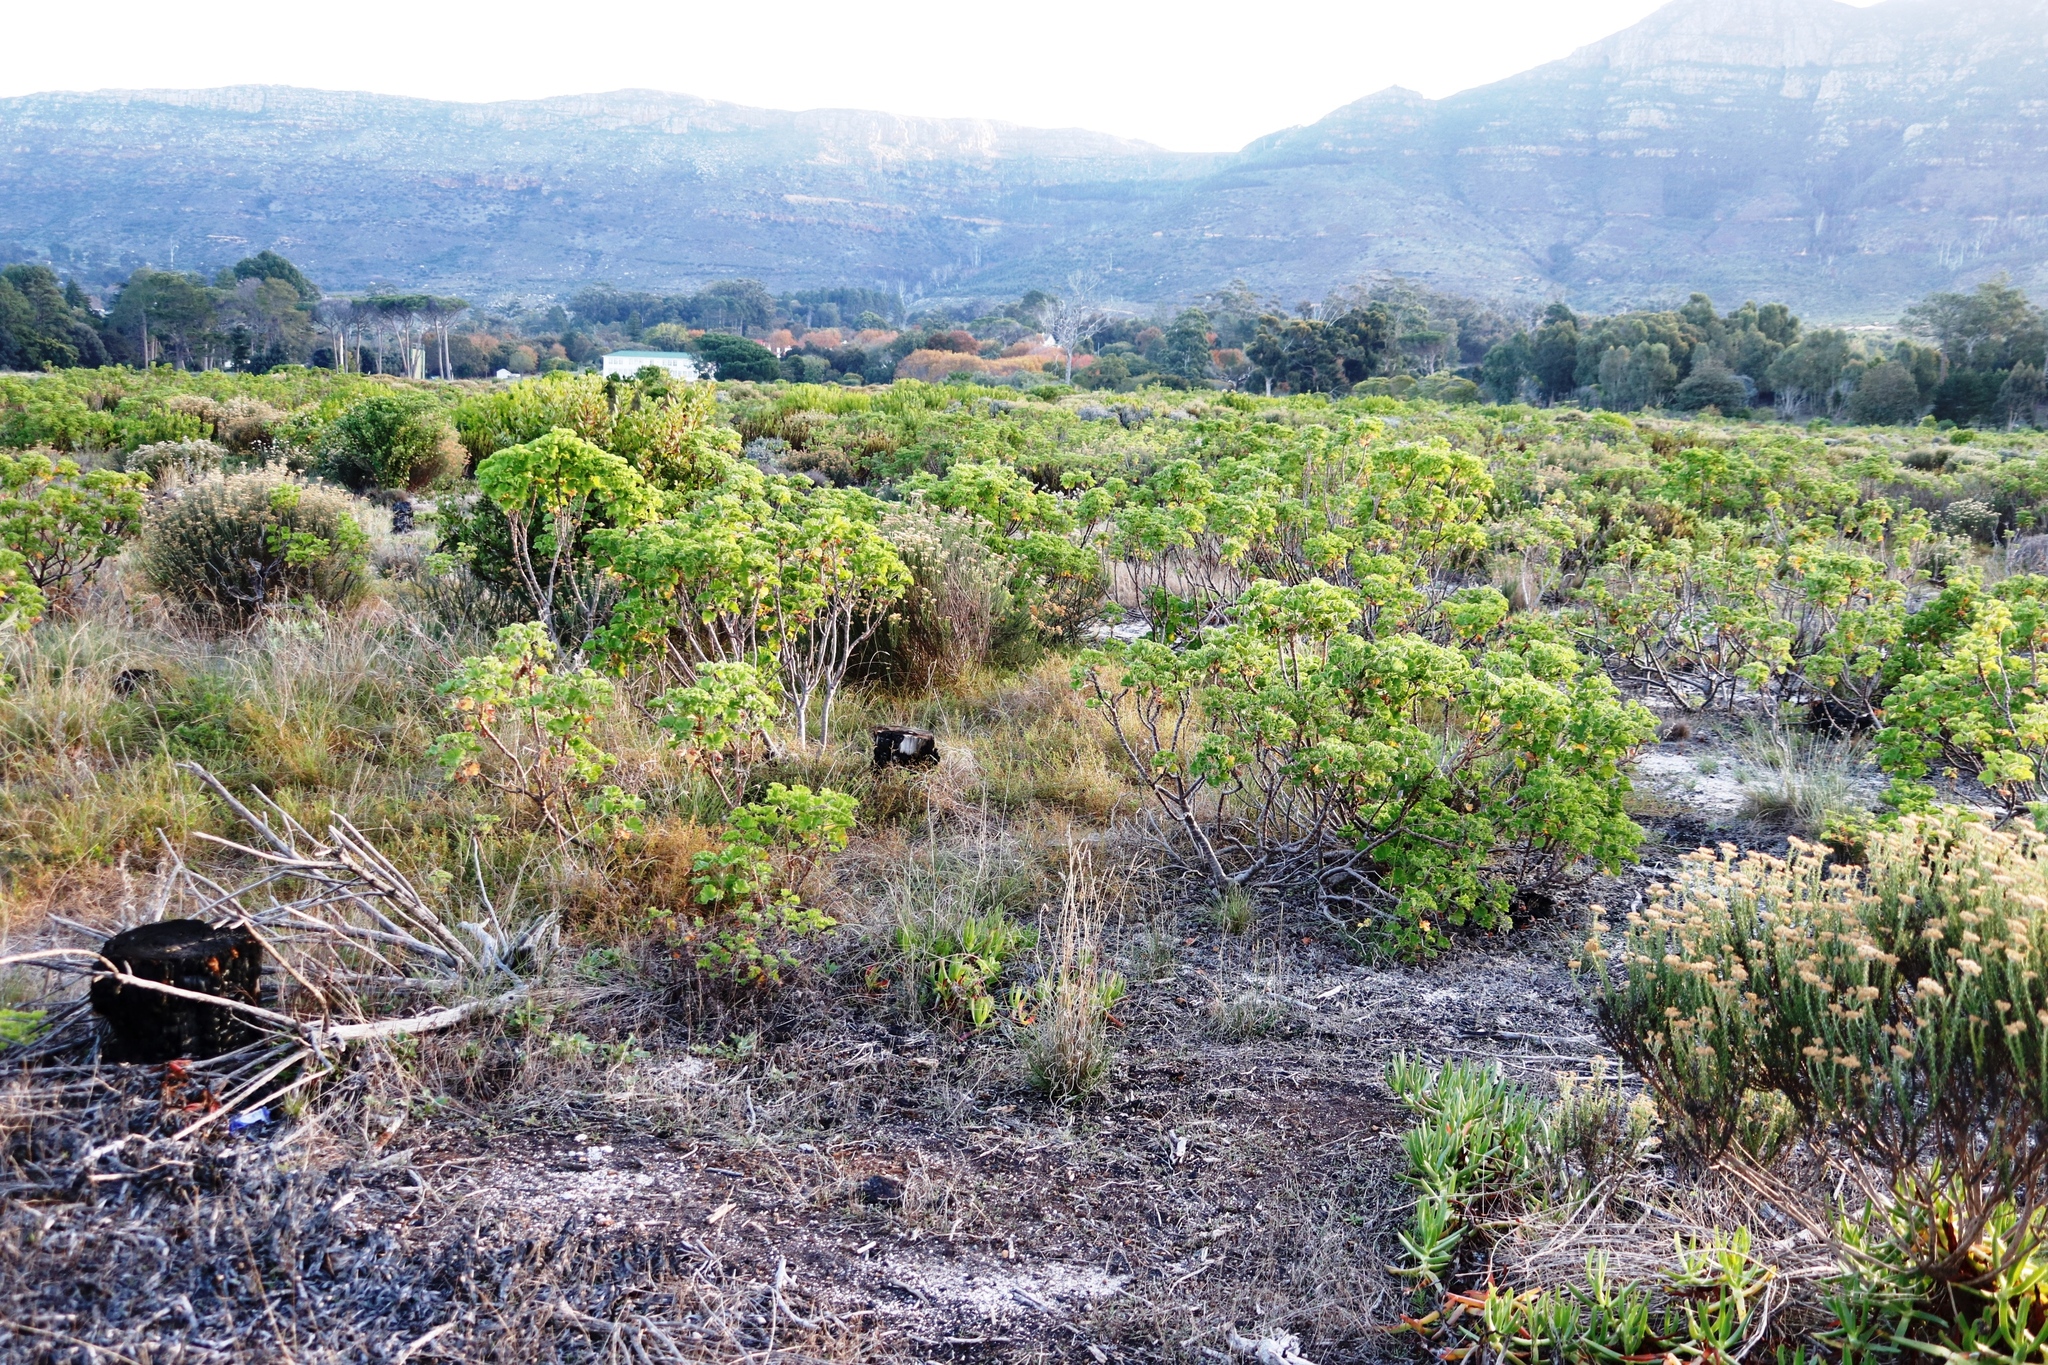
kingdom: Plantae
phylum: Tracheophyta
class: Magnoliopsida
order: Geraniales
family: Geraniaceae
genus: Pelargonium
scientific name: Pelargonium cucullatum
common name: Tree pelargonium
